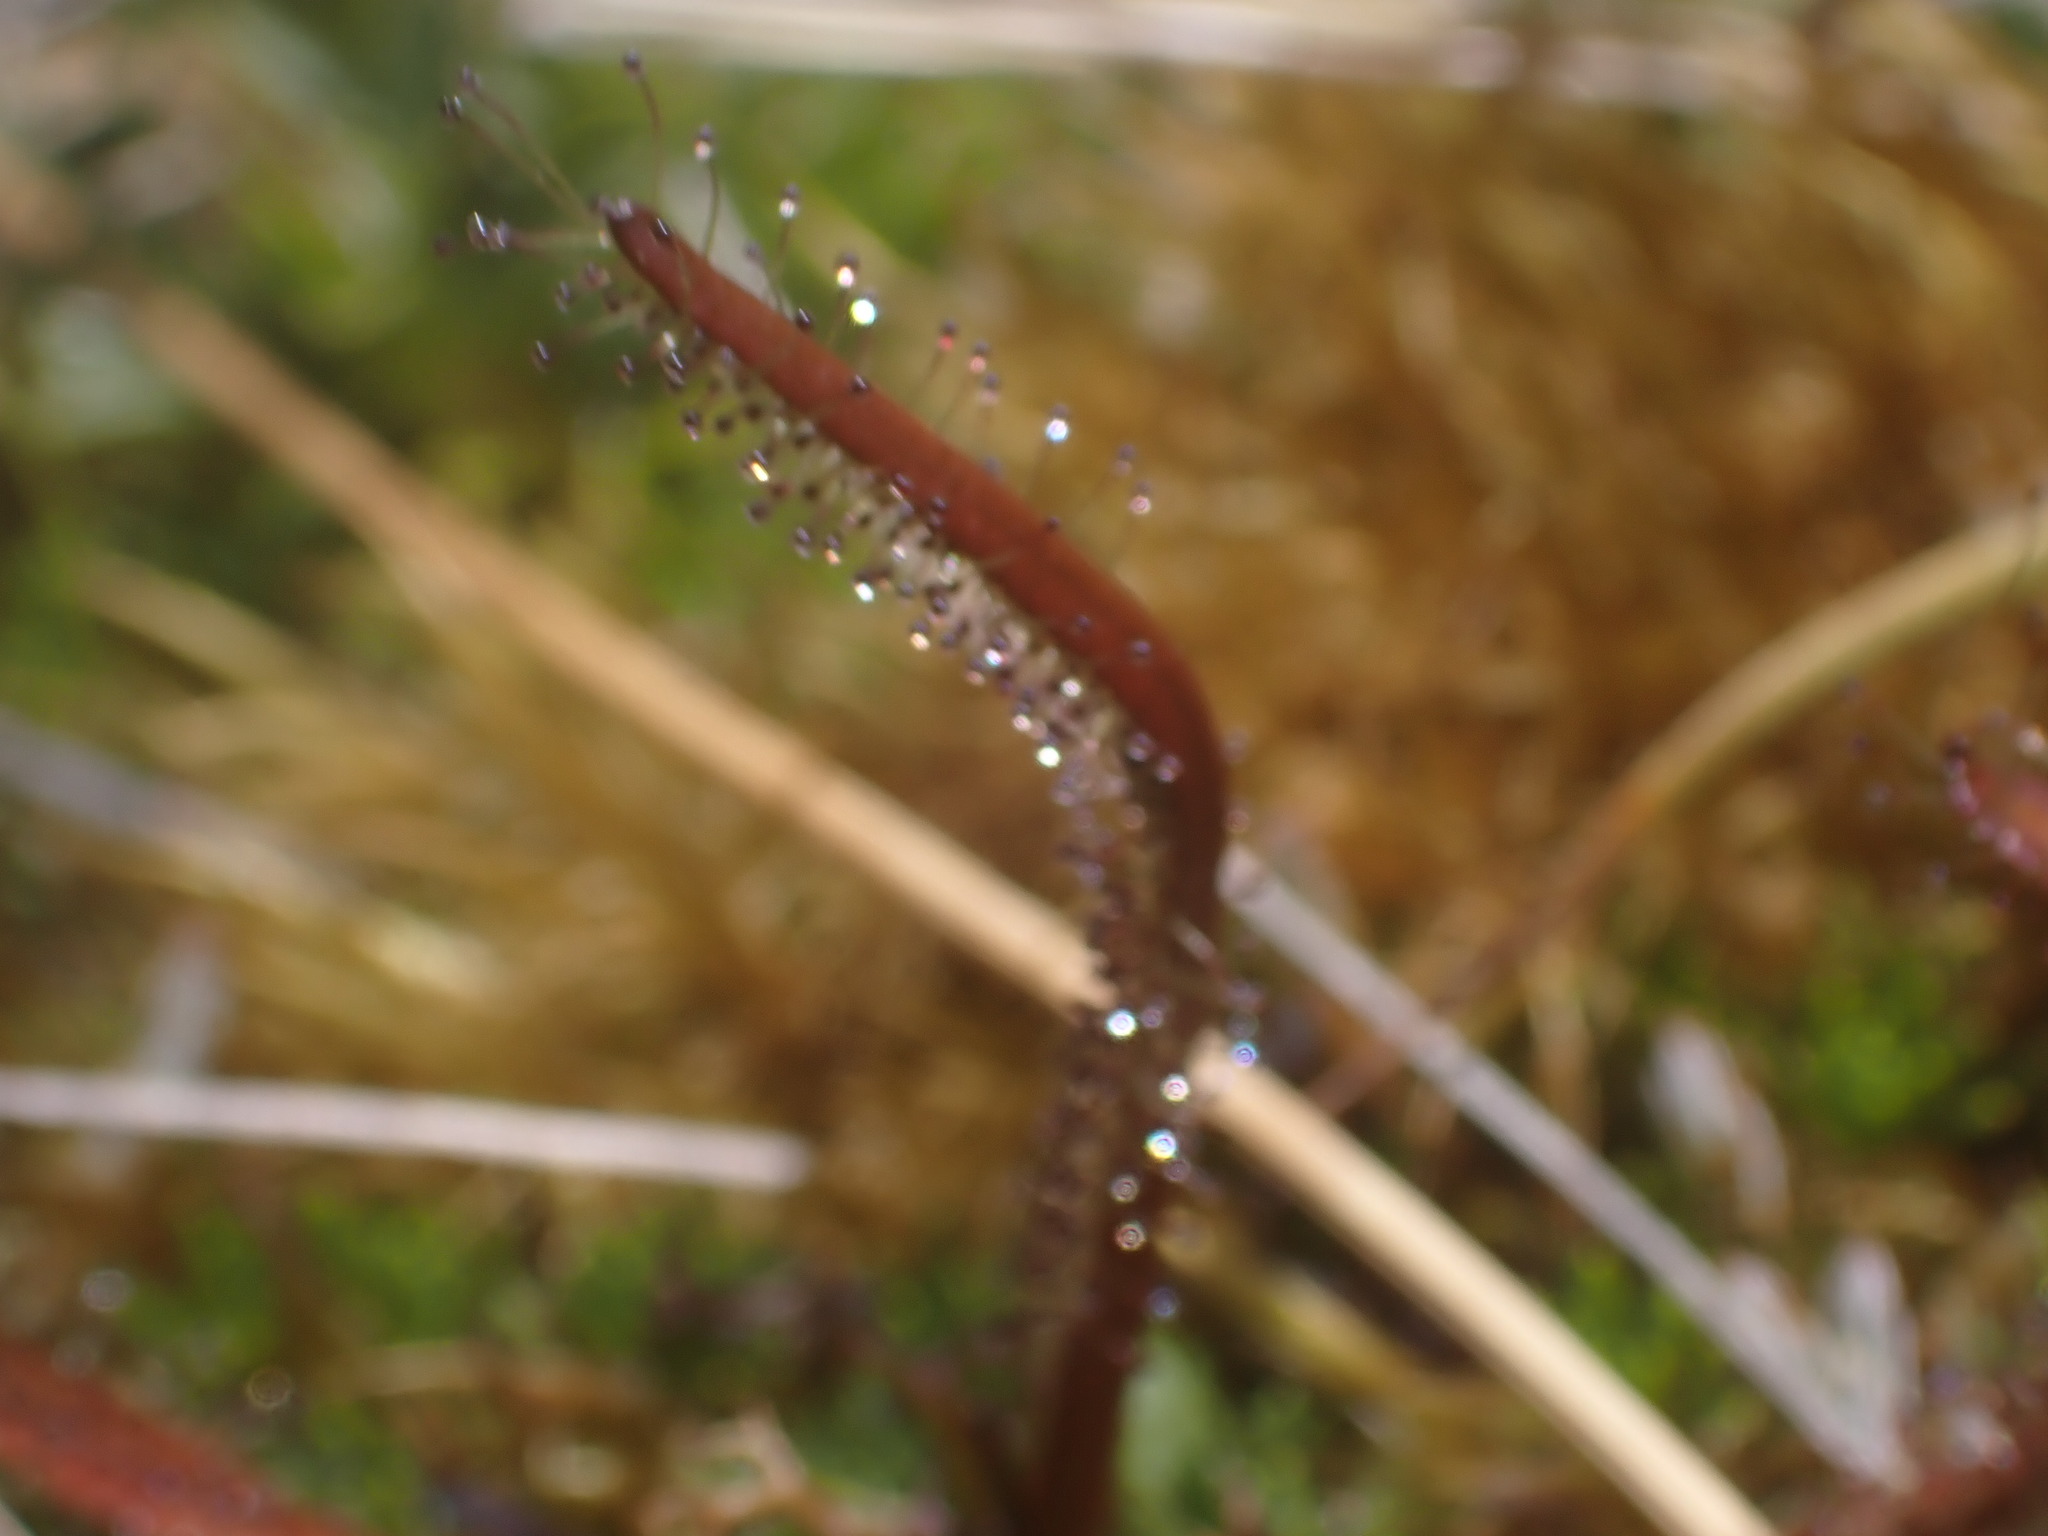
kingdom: Plantae
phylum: Tracheophyta
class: Magnoliopsida
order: Caryophyllales
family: Droseraceae
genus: Drosera
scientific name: Drosera arcturi
